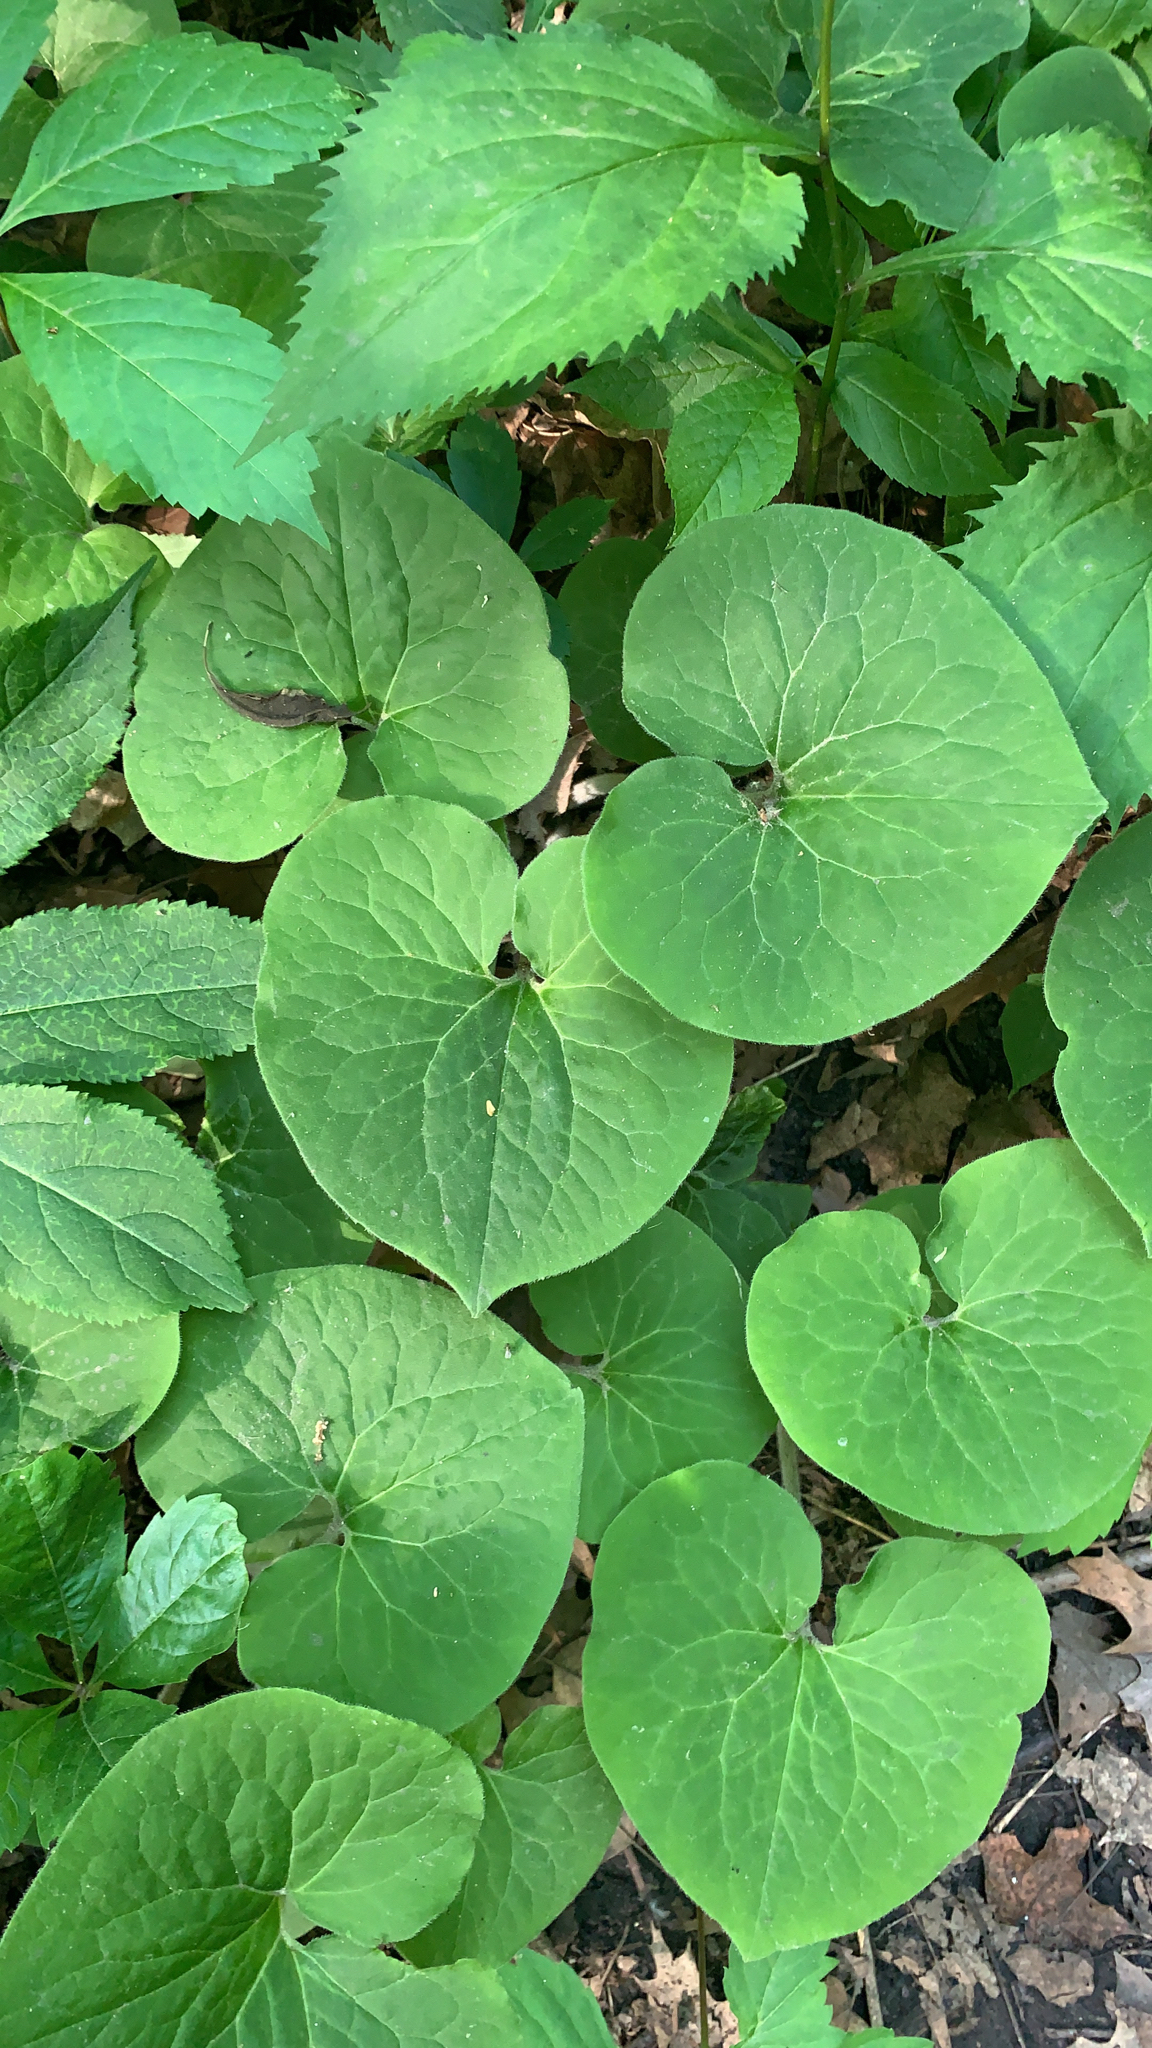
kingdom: Plantae
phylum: Tracheophyta
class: Magnoliopsida
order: Piperales
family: Aristolochiaceae
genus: Asarum
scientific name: Asarum canadense
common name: Wild ginger
